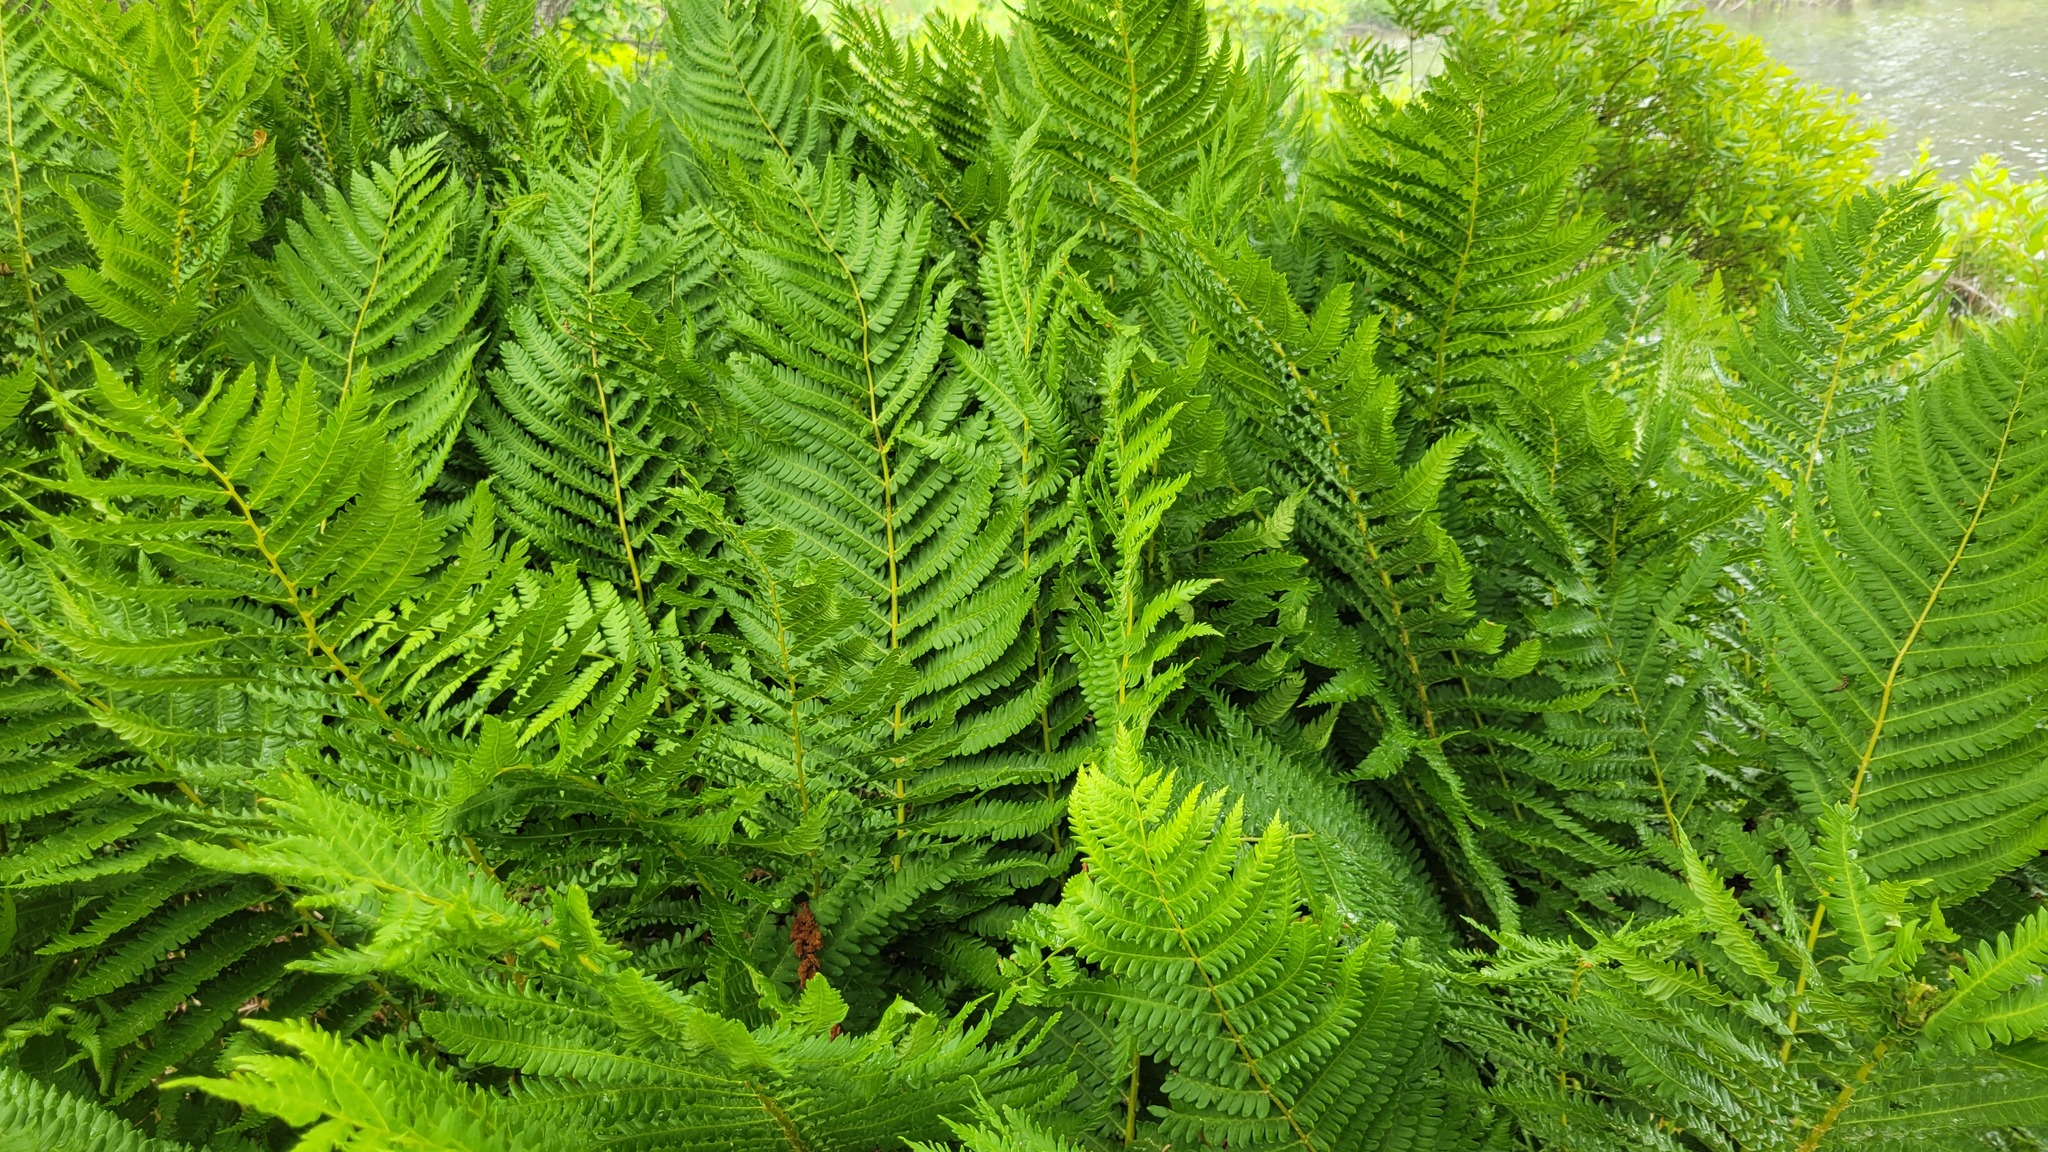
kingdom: Plantae
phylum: Tracheophyta
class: Polypodiopsida
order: Osmundales
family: Osmundaceae
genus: Osmundastrum
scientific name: Osmundastrum cinnamomeum
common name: Cinnamon fern
